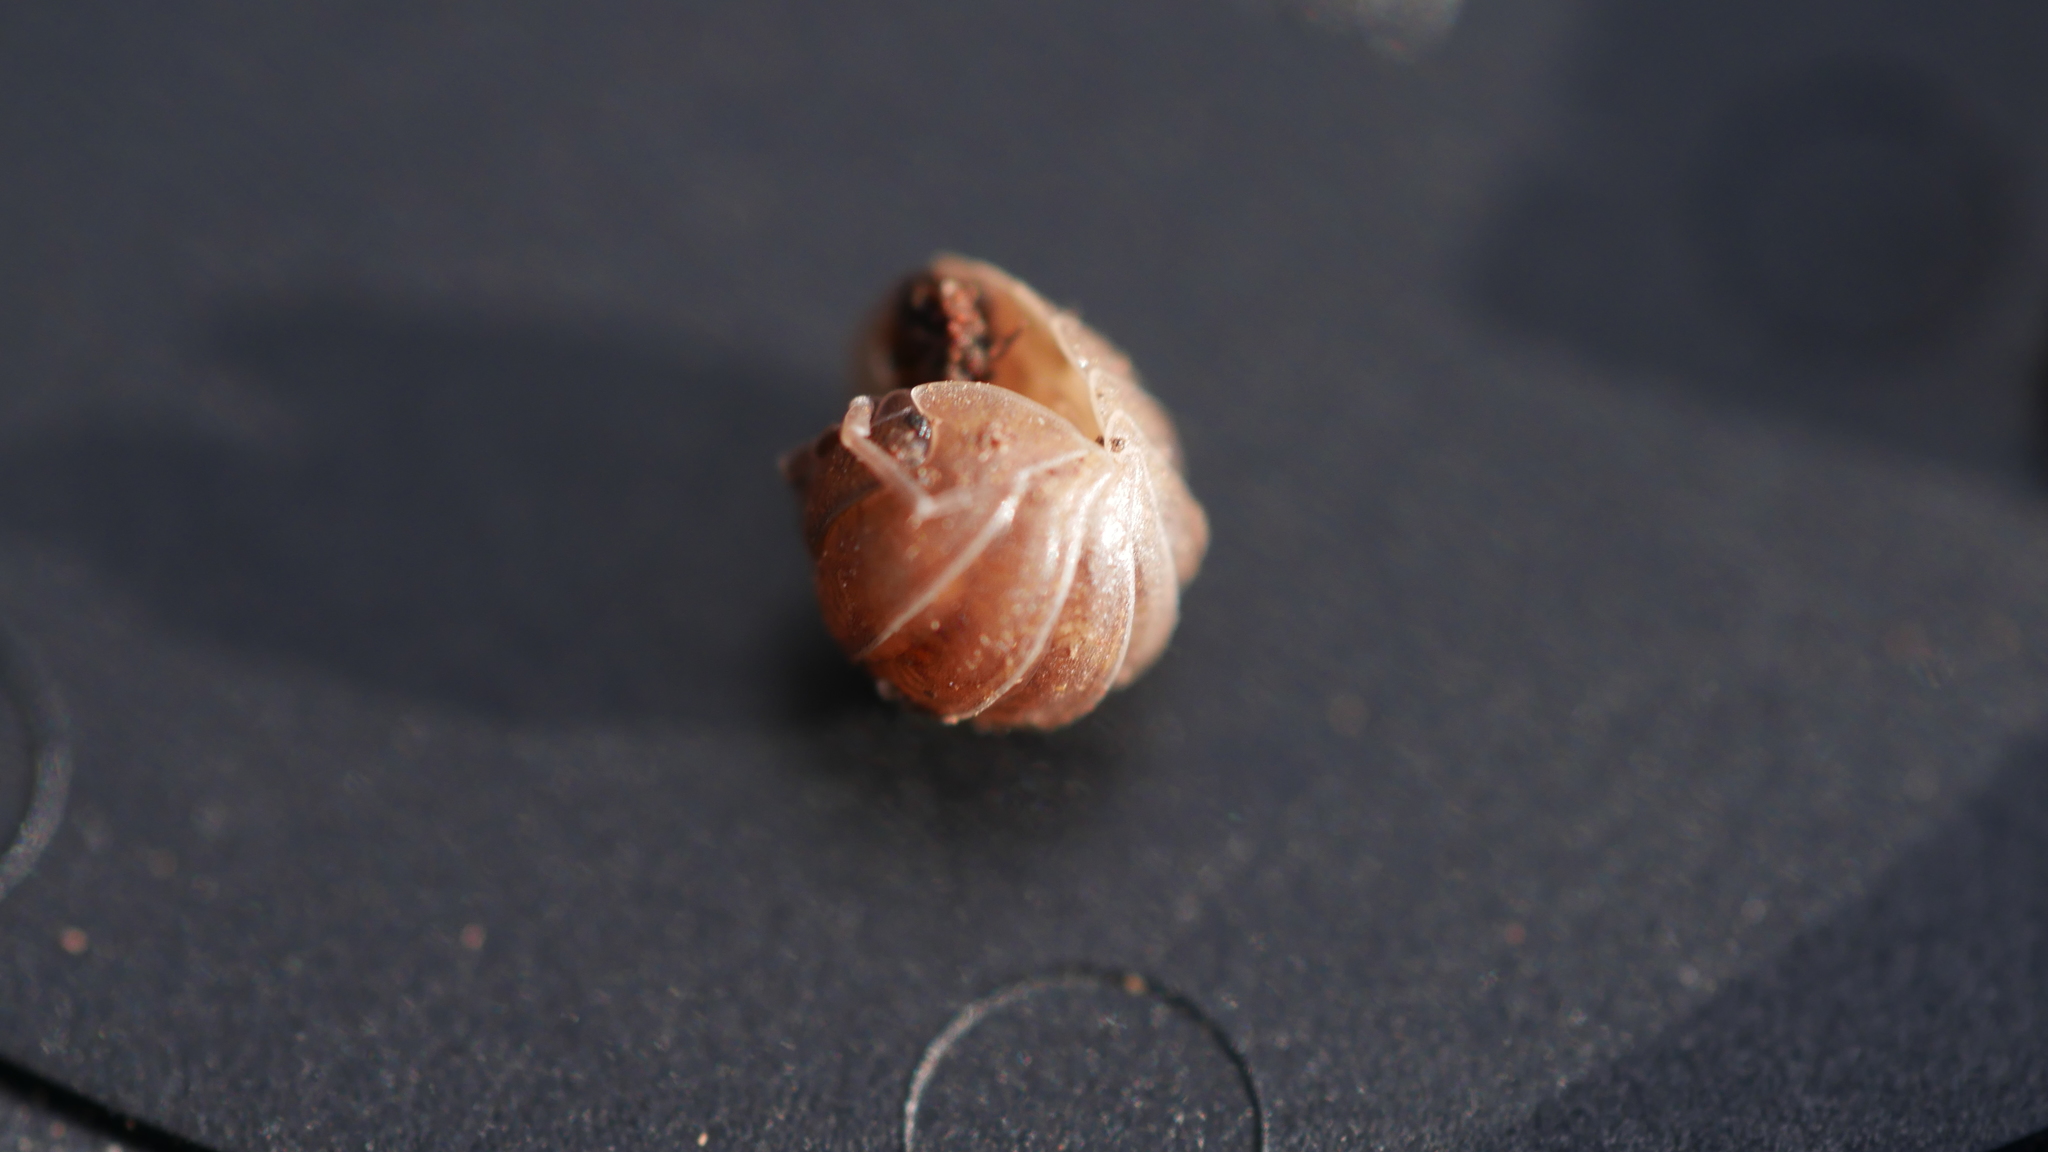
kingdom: Animalia
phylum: Arthropoda
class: Malacostraca
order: Isopoda
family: Armadillidiidae
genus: Armadillidium
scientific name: Armadillidium nasatum
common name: Isopod
